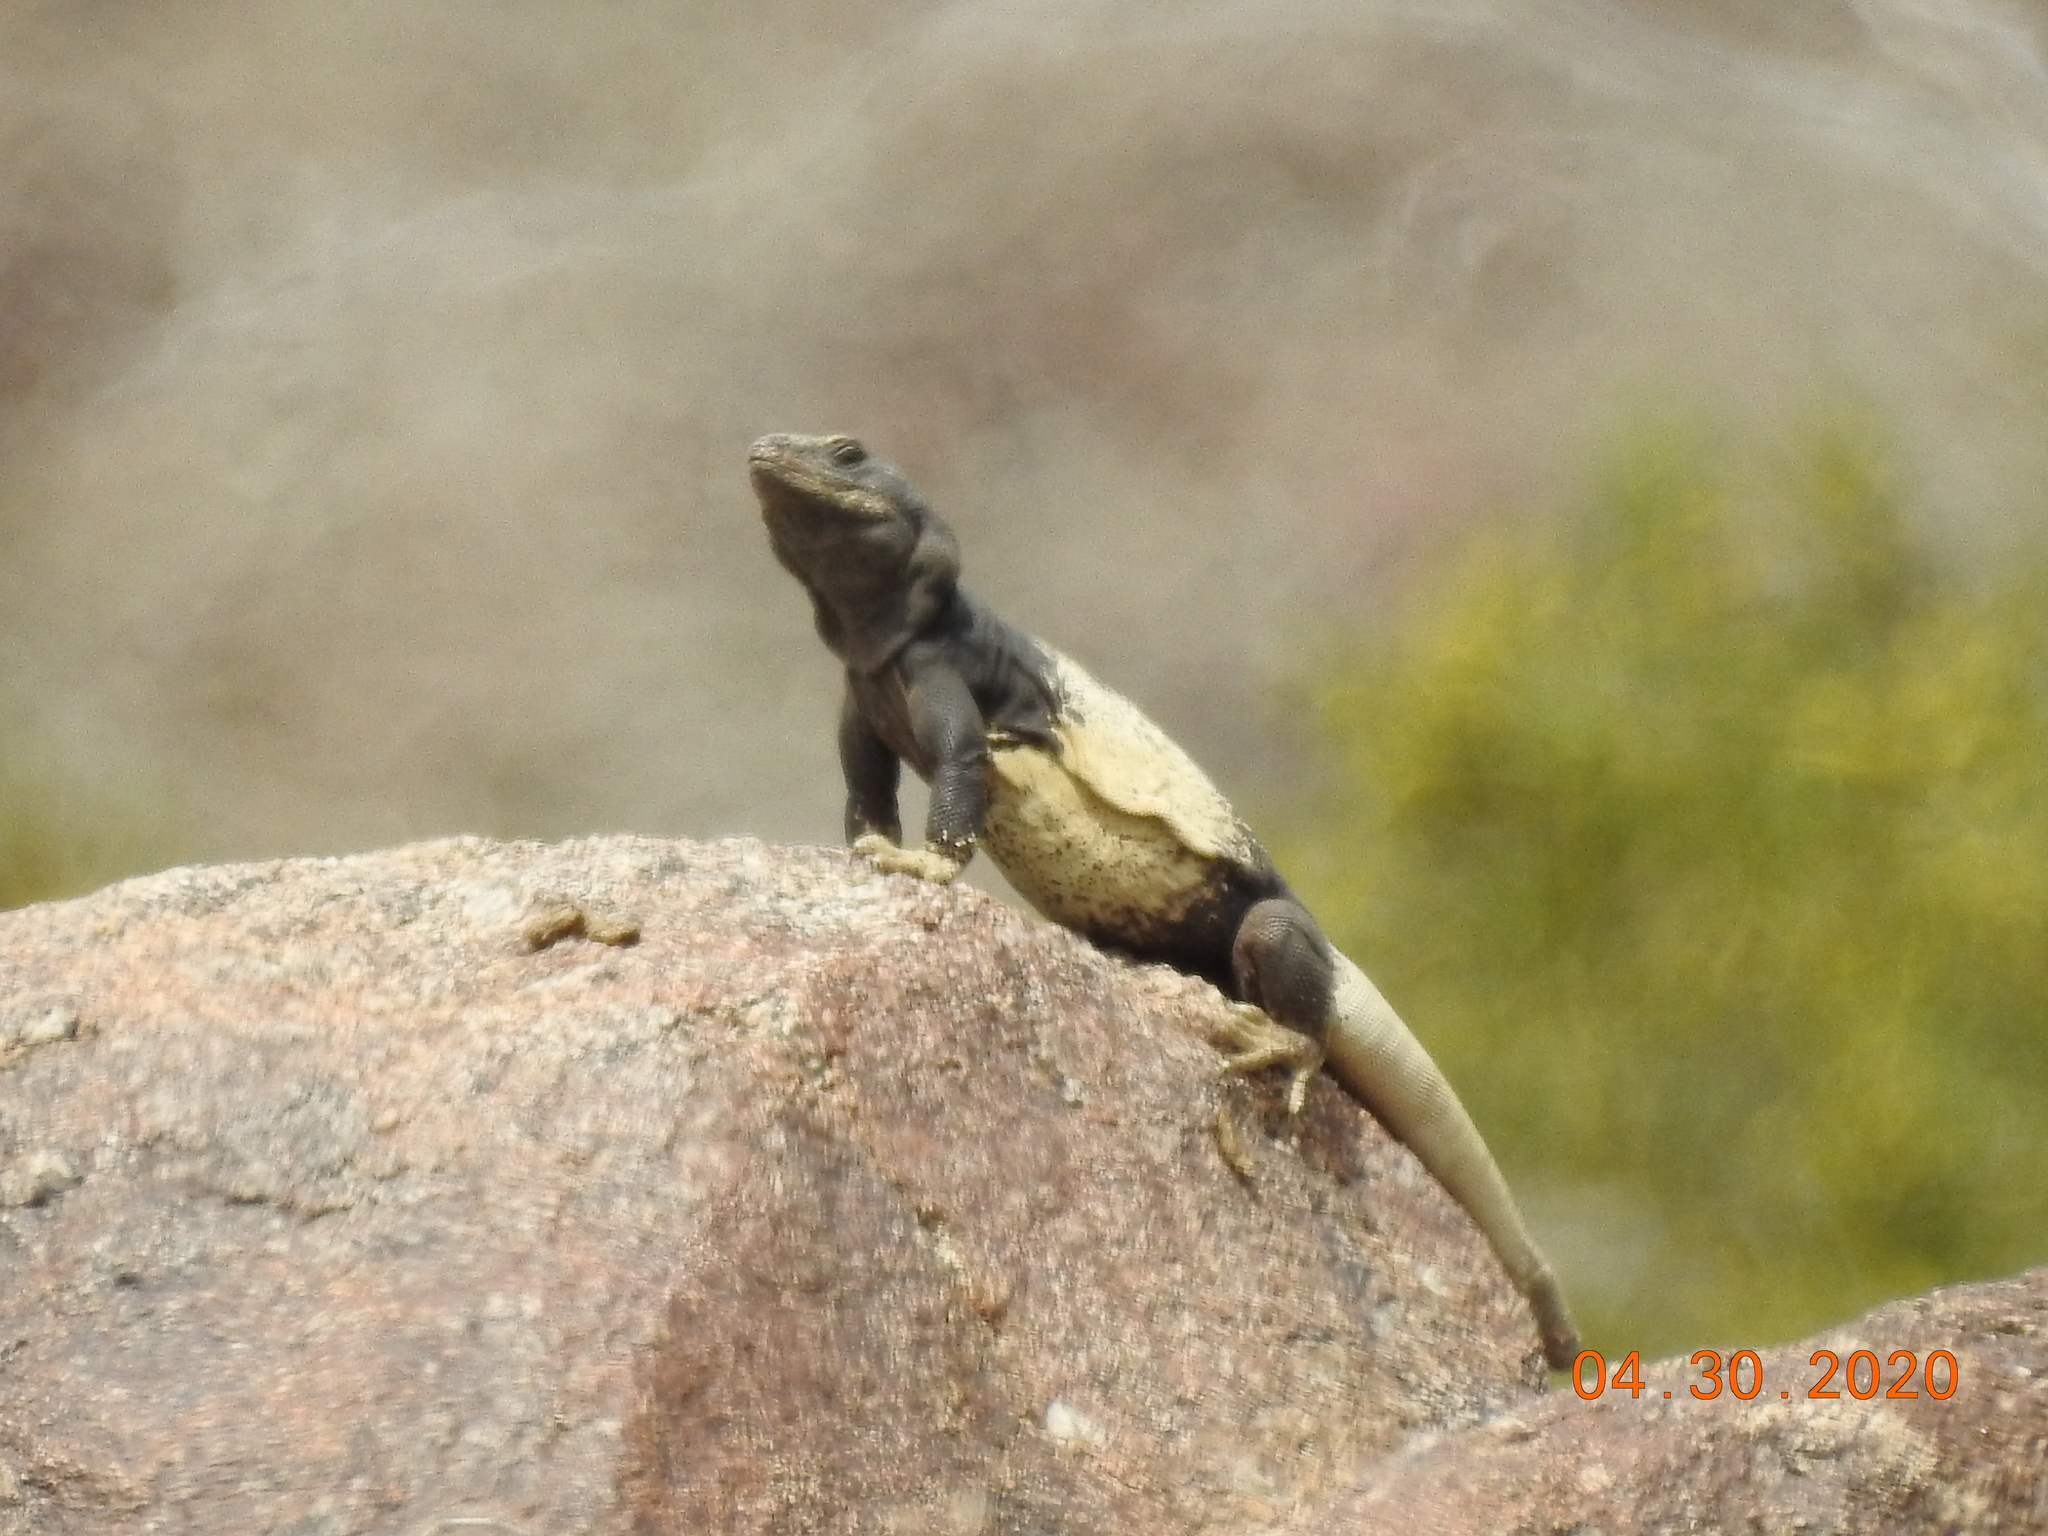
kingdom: Animalia
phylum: Chordata
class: Squamata
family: Iguanidae
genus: Sauromalus
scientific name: Sauromalus ater
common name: Northern chuckwalla
